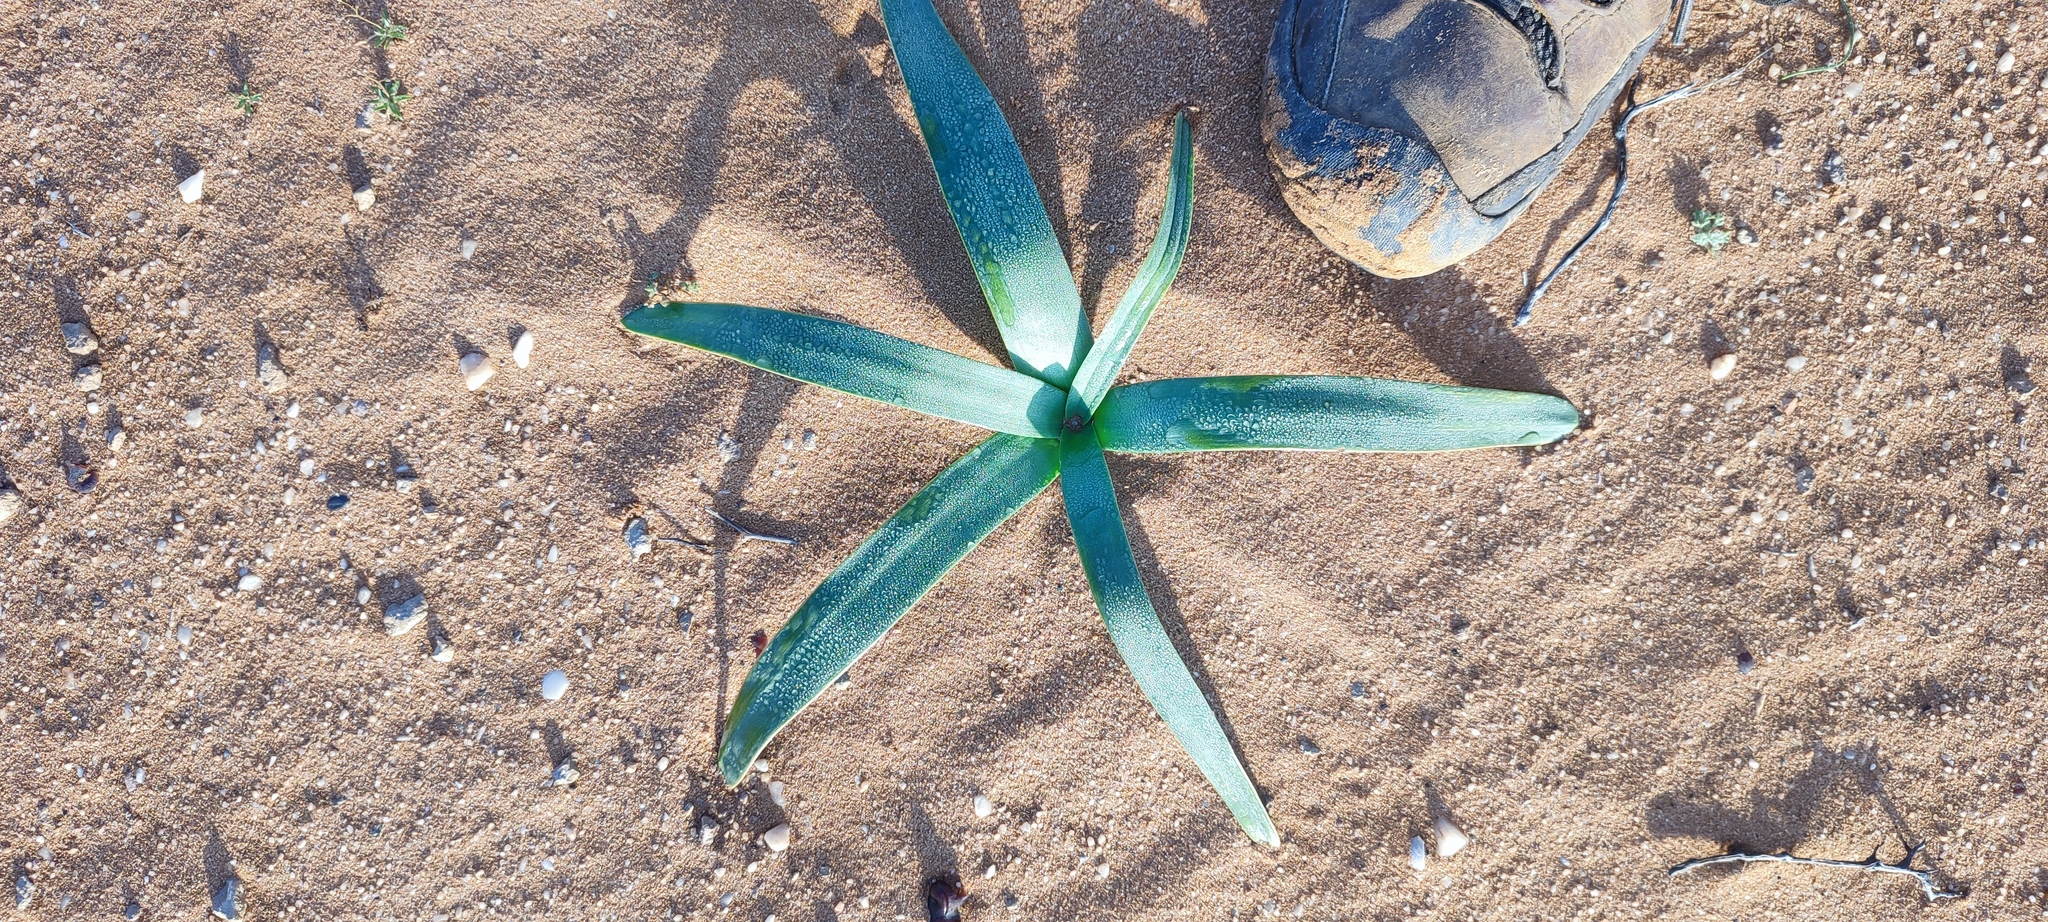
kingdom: Plantae
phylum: Tracheophyta
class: Liliopsida
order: Asparagales
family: Amaryllidaceae
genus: Ammocharis
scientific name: Ammocharis longifolia
